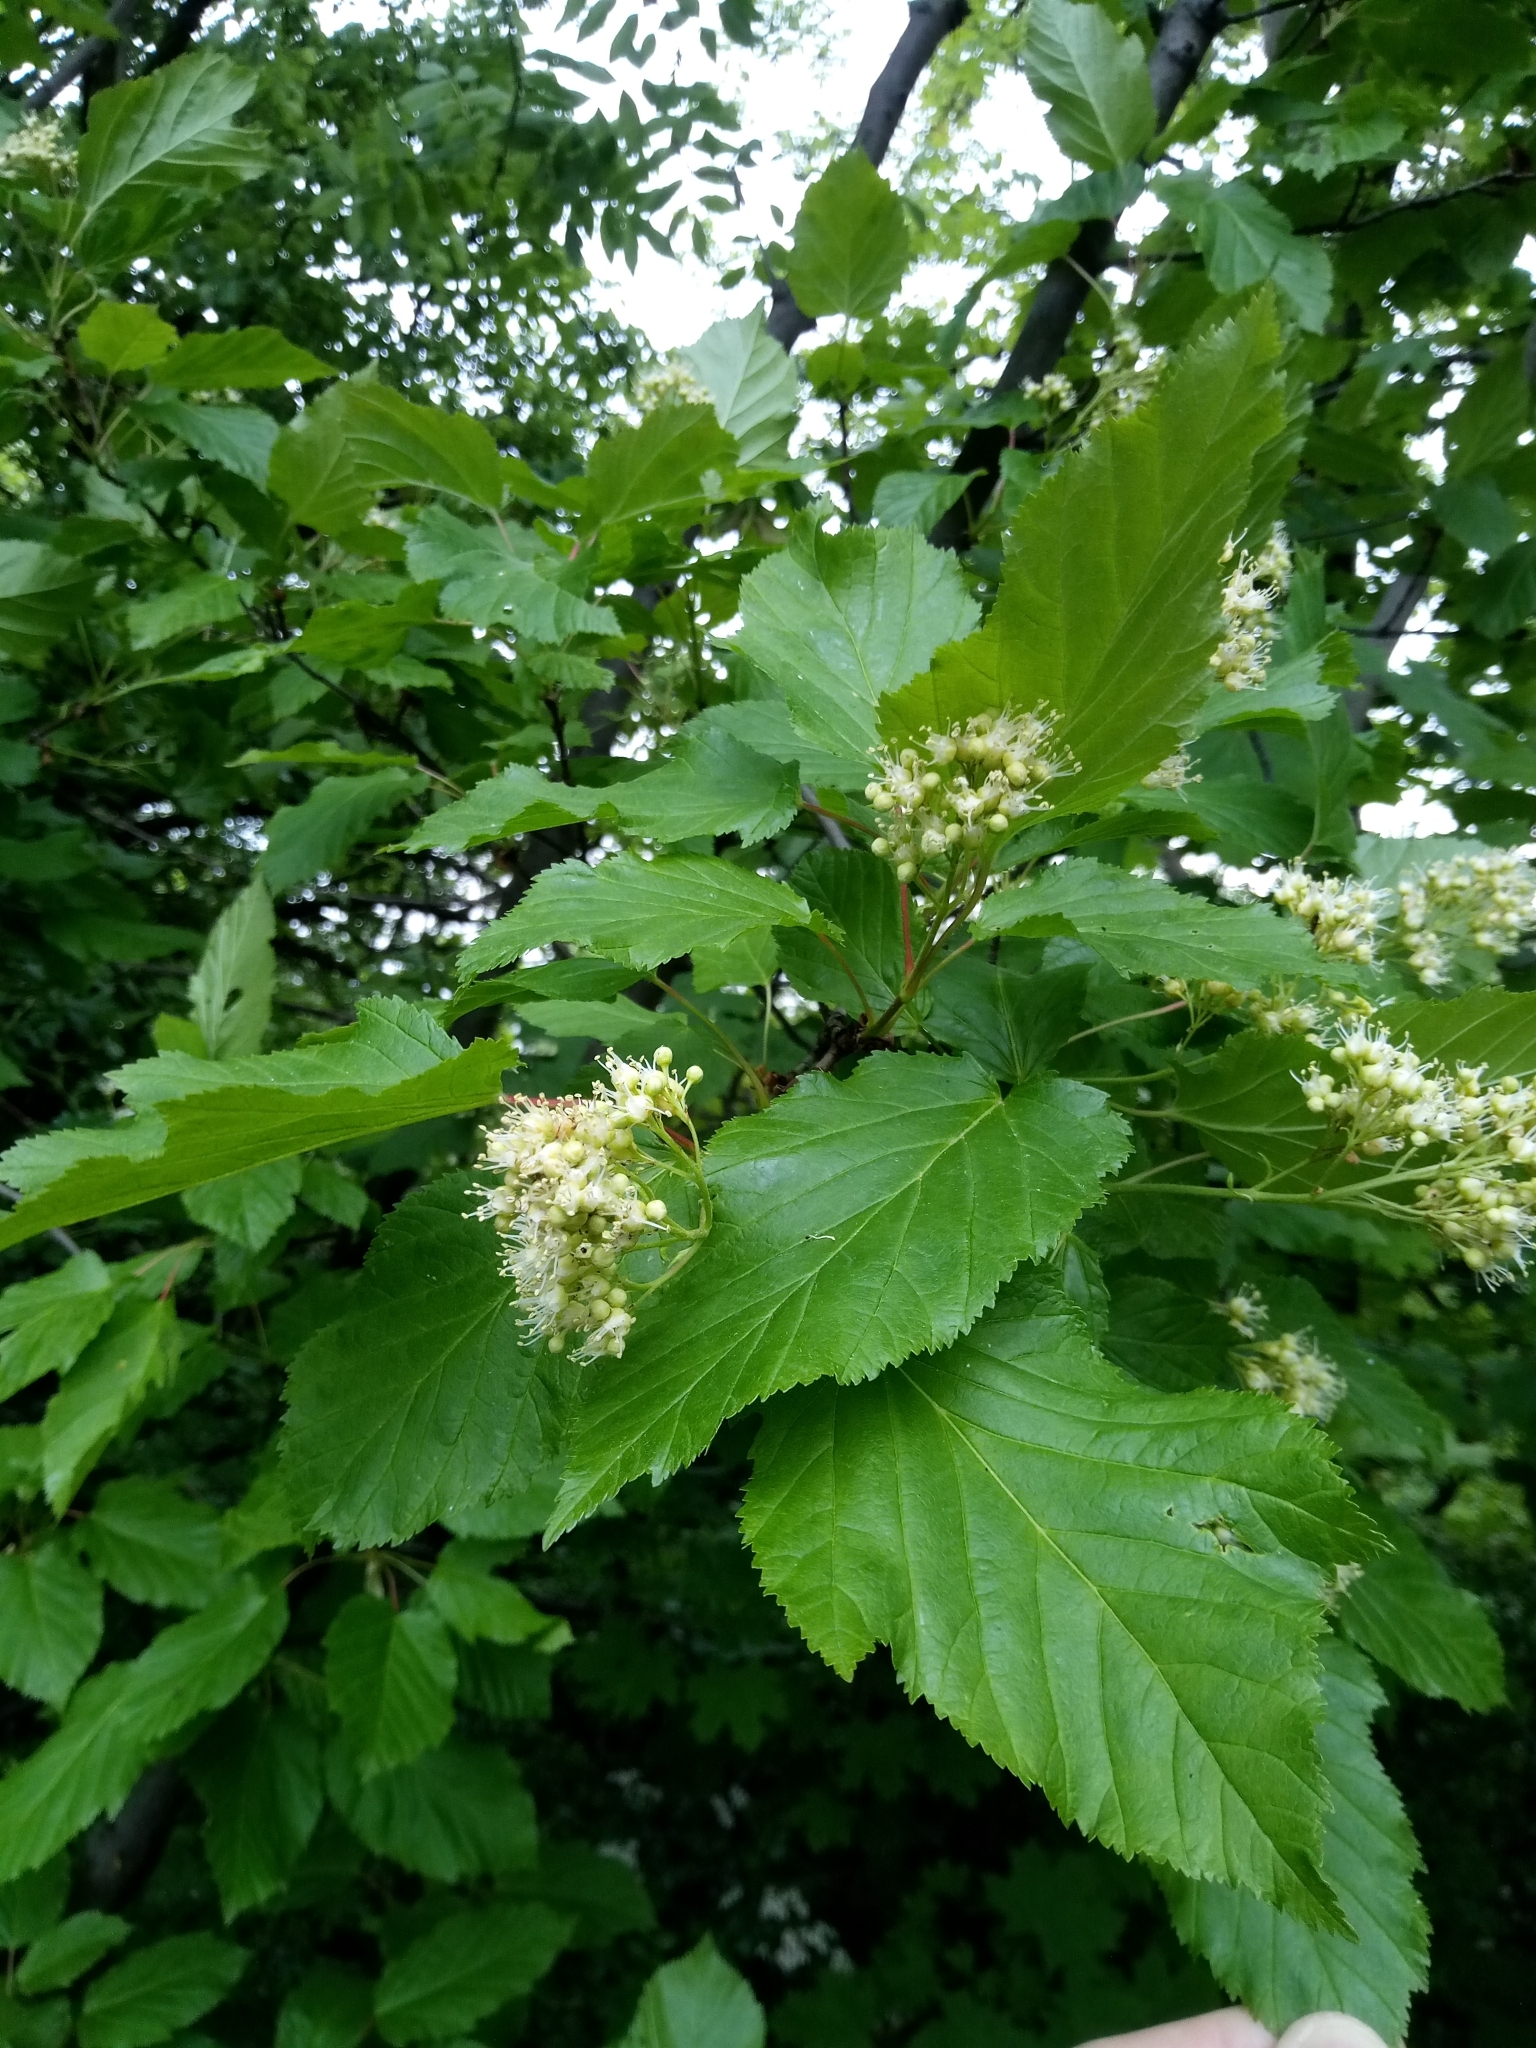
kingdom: Plantae
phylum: Tracheophyta
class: Magnoliopsida
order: Sapindales
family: Sapindaceae
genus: Acer
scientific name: Acer tataricum
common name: Tartar maple
